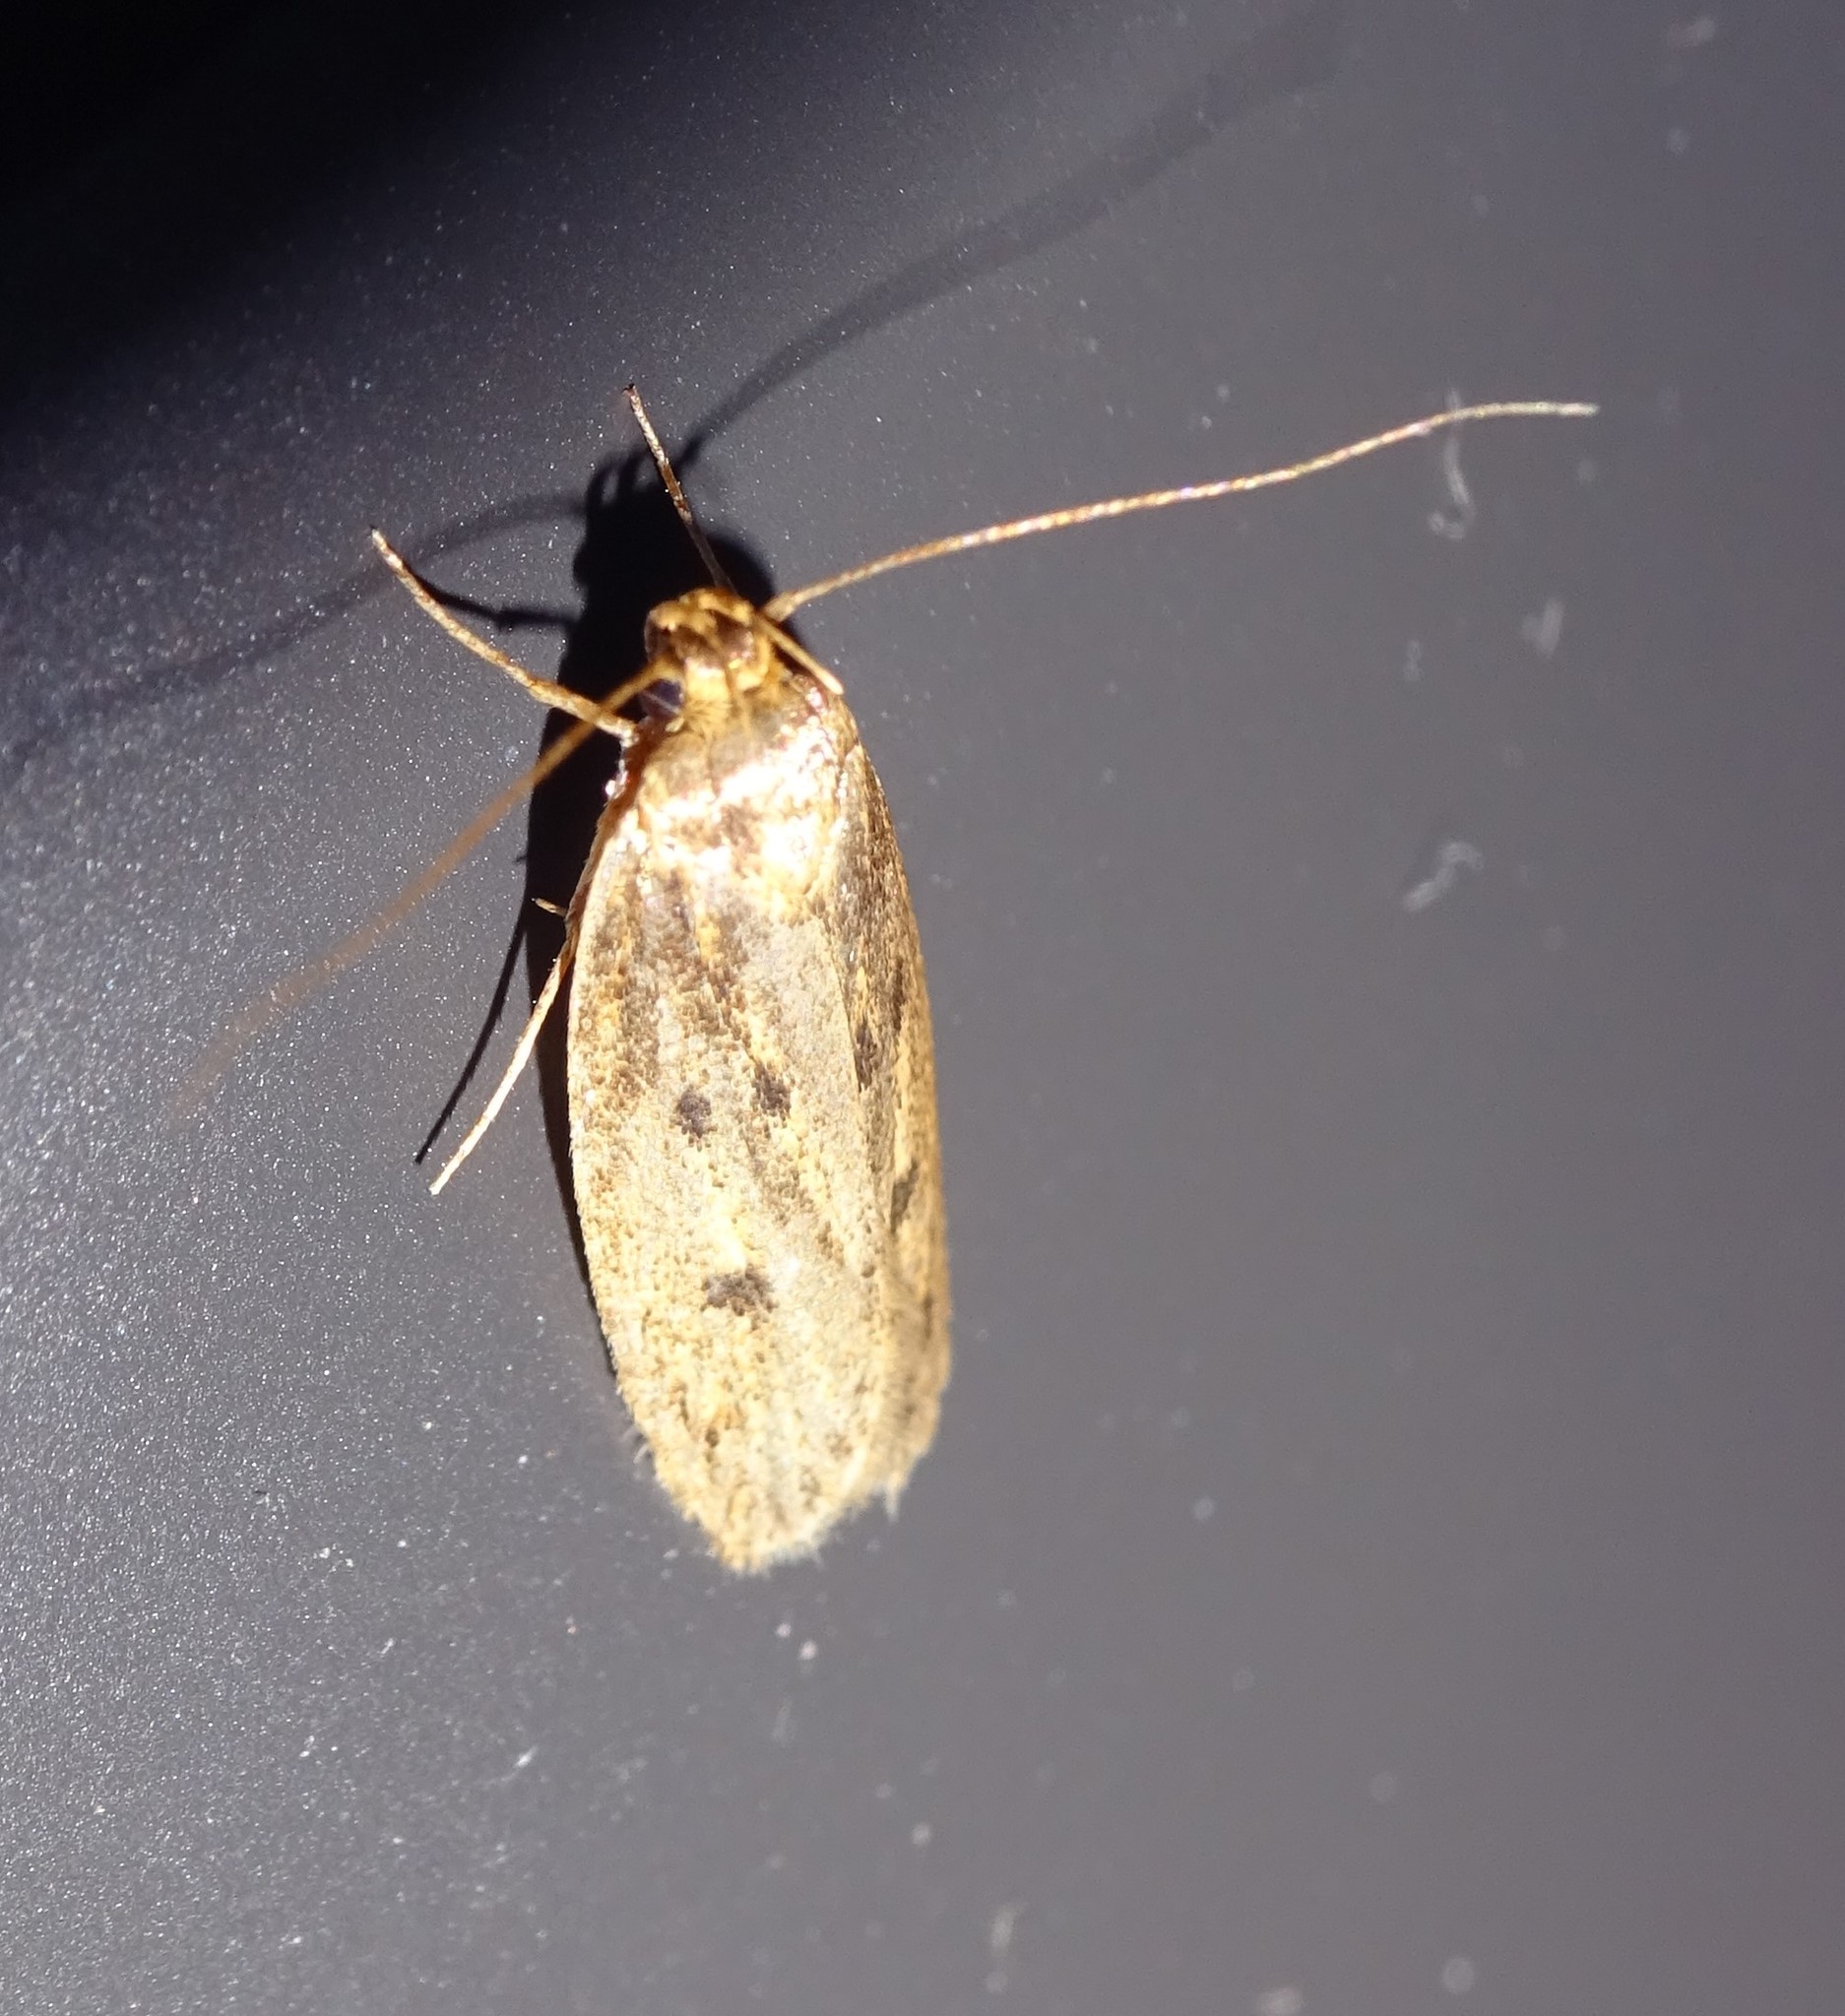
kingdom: Animalia
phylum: Arthropoda
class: Insecta
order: Lepidoptera
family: Oecophoridae
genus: Hofmannophila
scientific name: Hofmannophila pseudospretella
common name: Brown house moth
